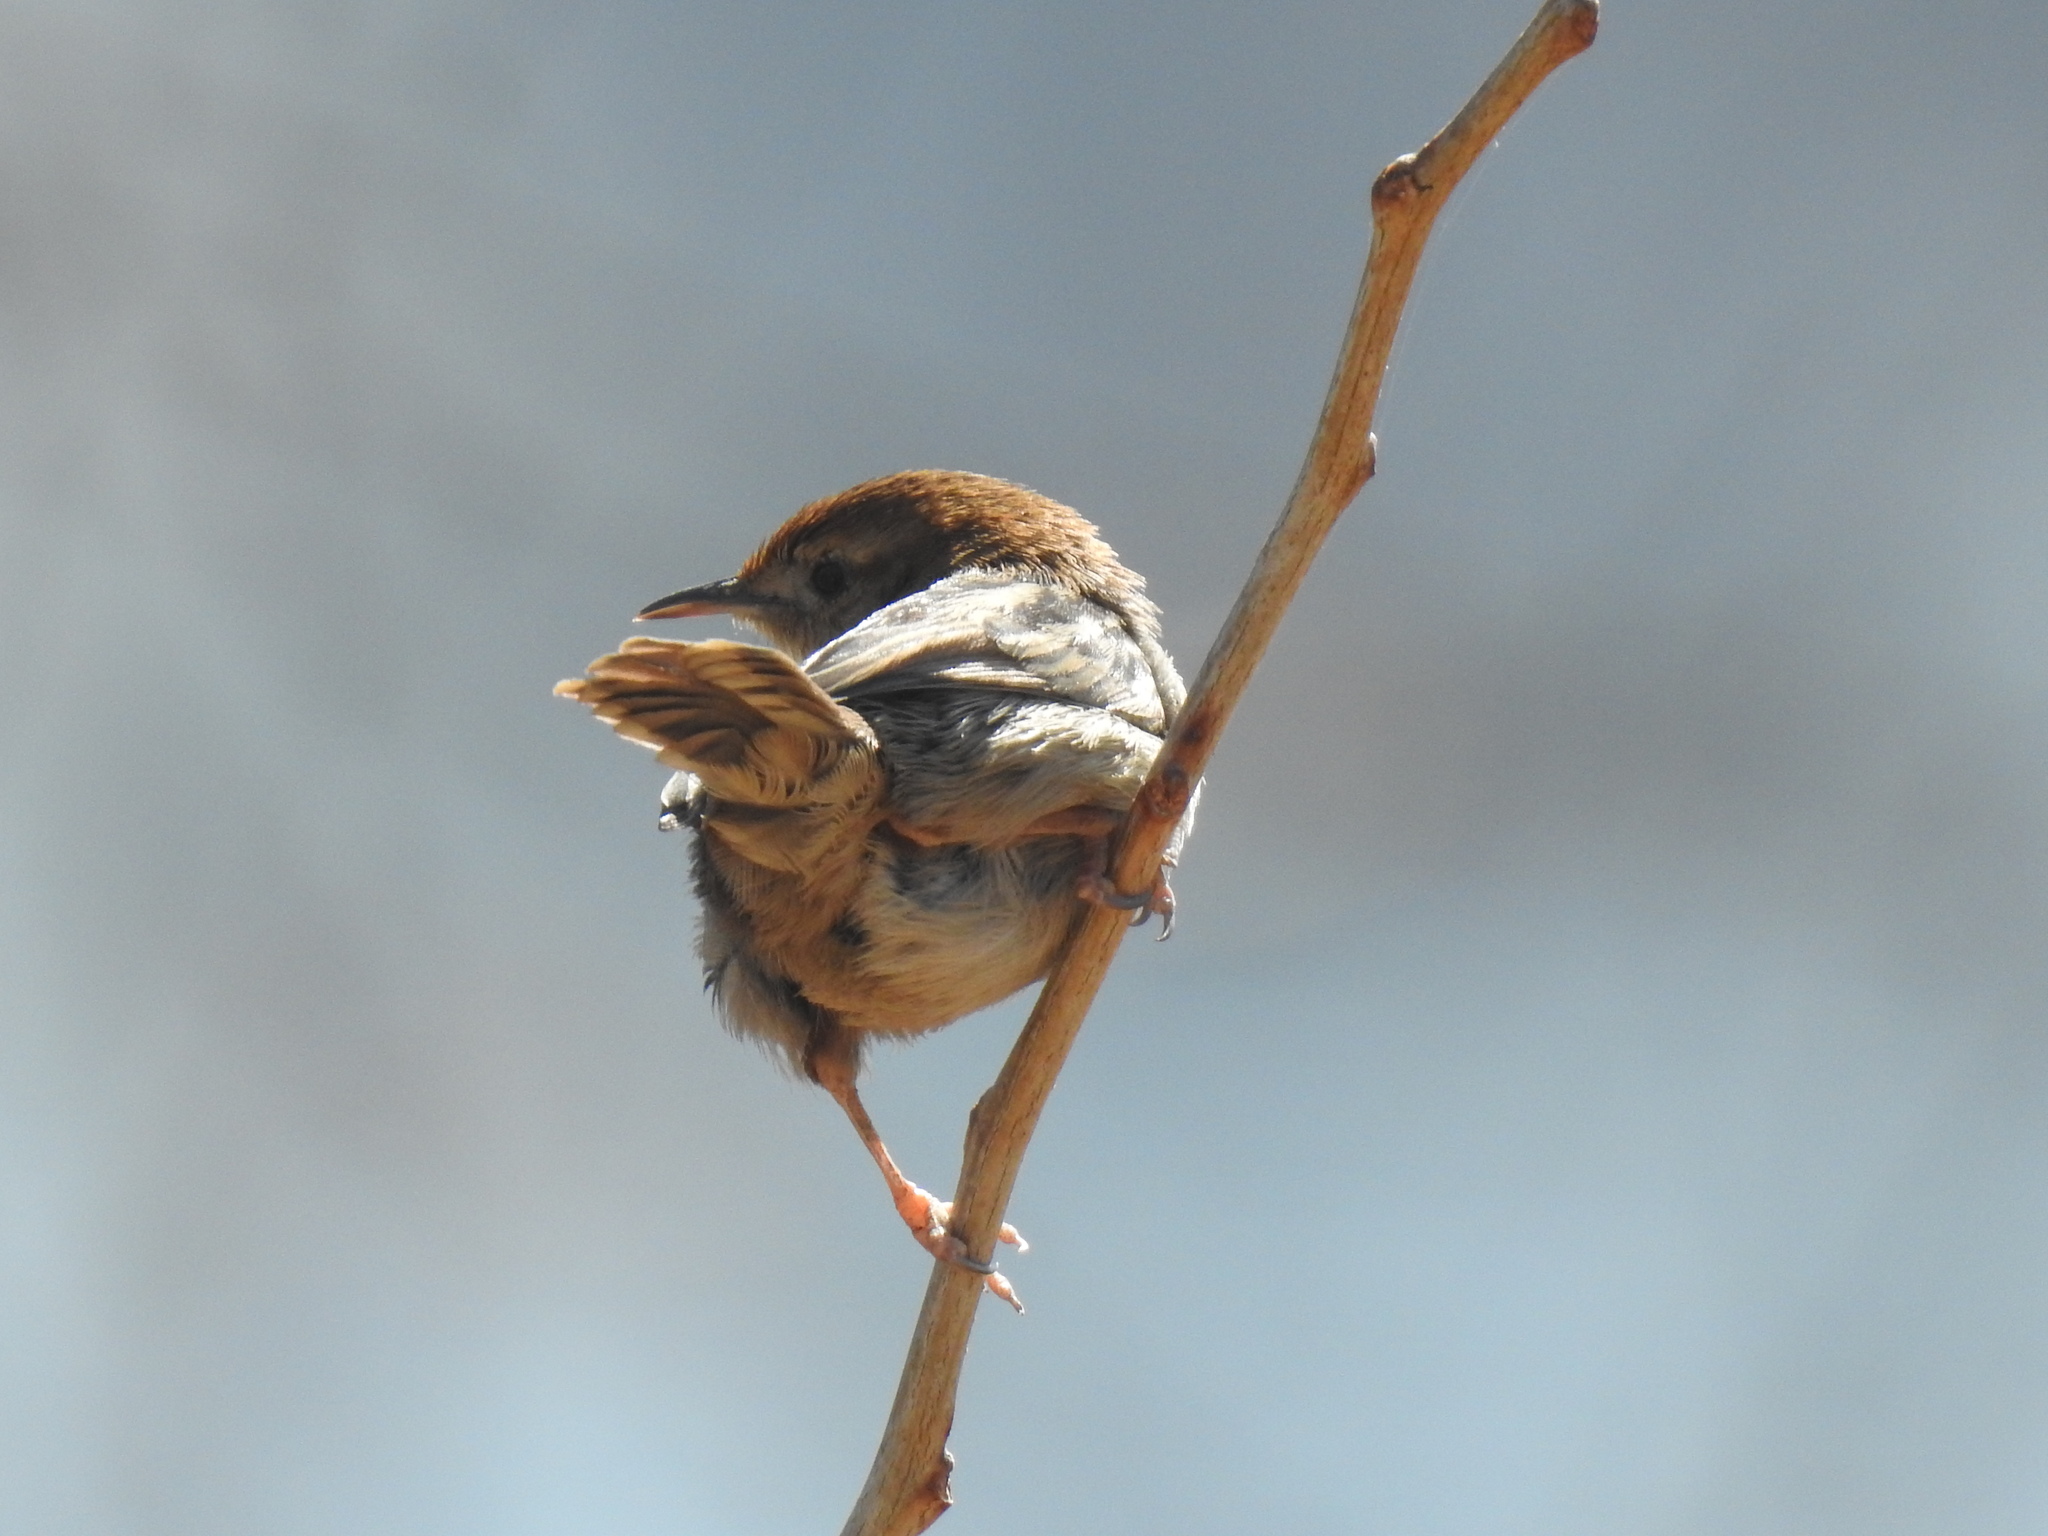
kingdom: Animalia
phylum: Chordata
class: Aves
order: Passeriformes
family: Cisticolidae
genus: Cisticola
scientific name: Cisticola tinniens
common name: Levaillant's cisticola
